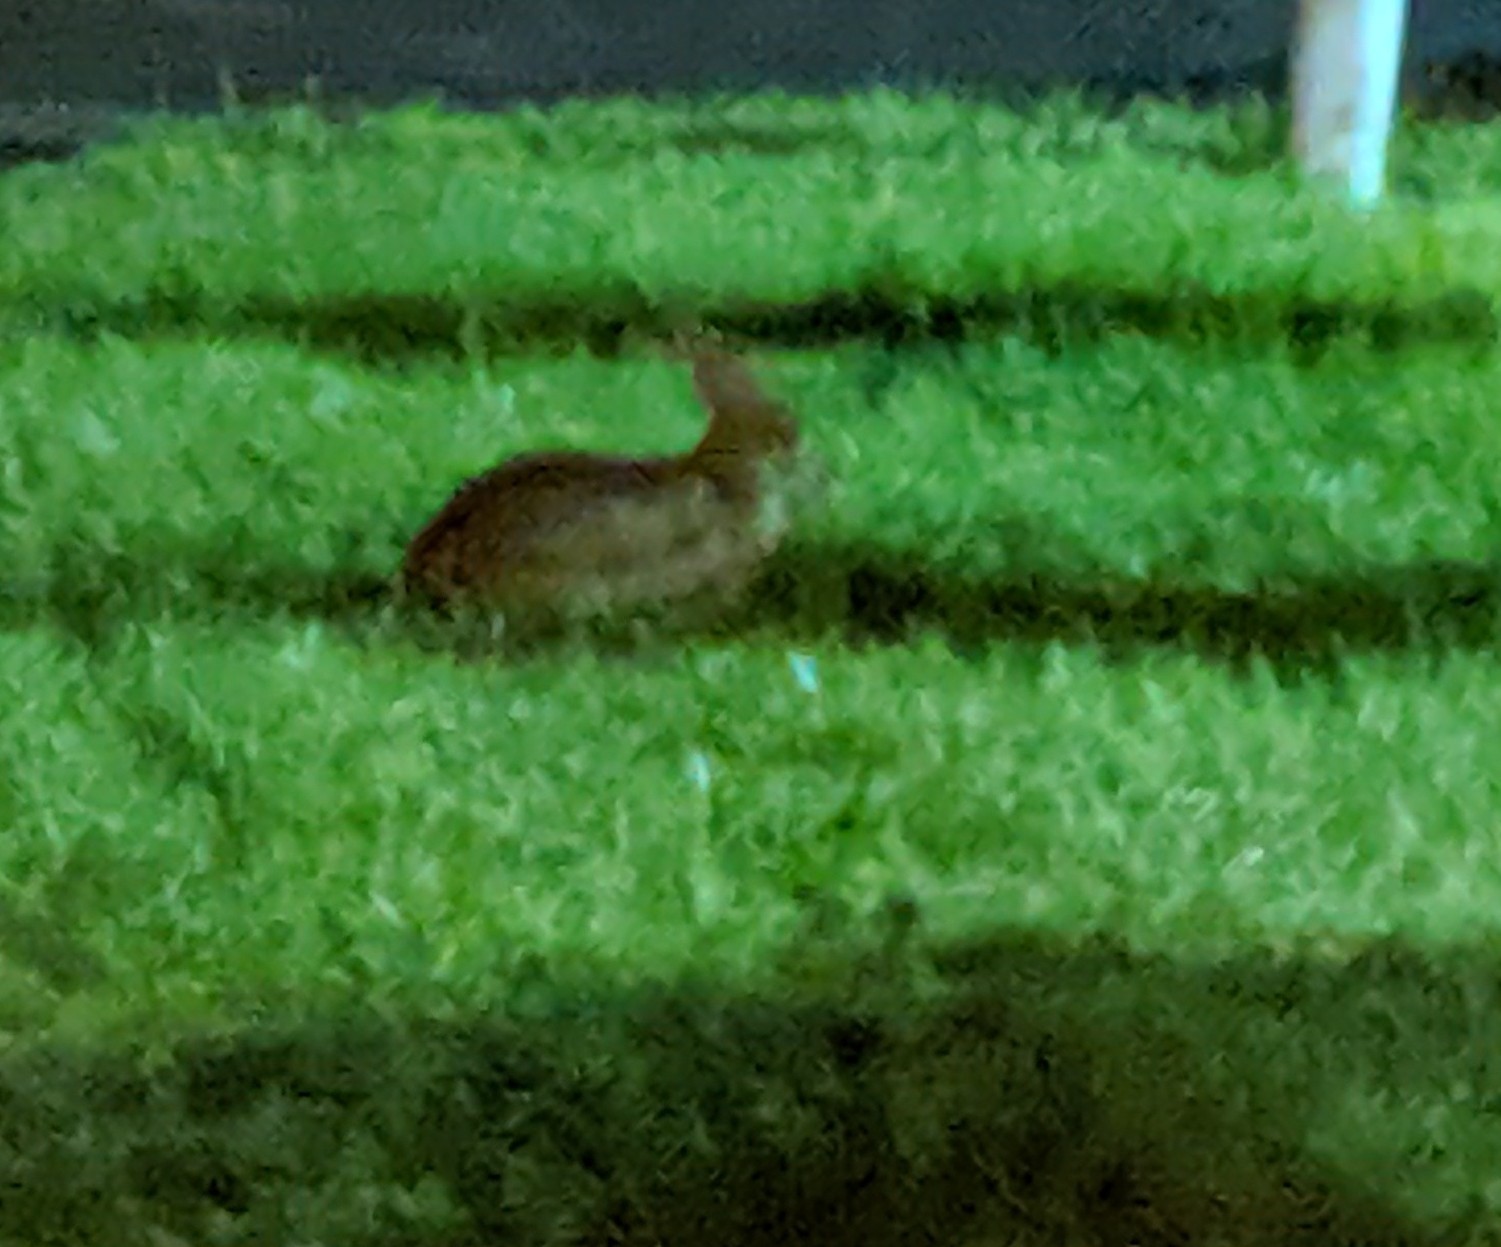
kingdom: Animalia
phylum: Chordata
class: Mammalia
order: Lagomorpha
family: Leporidae
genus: Sylvilagus
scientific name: Sylvilagus floridanus
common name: Eastern cottontail
